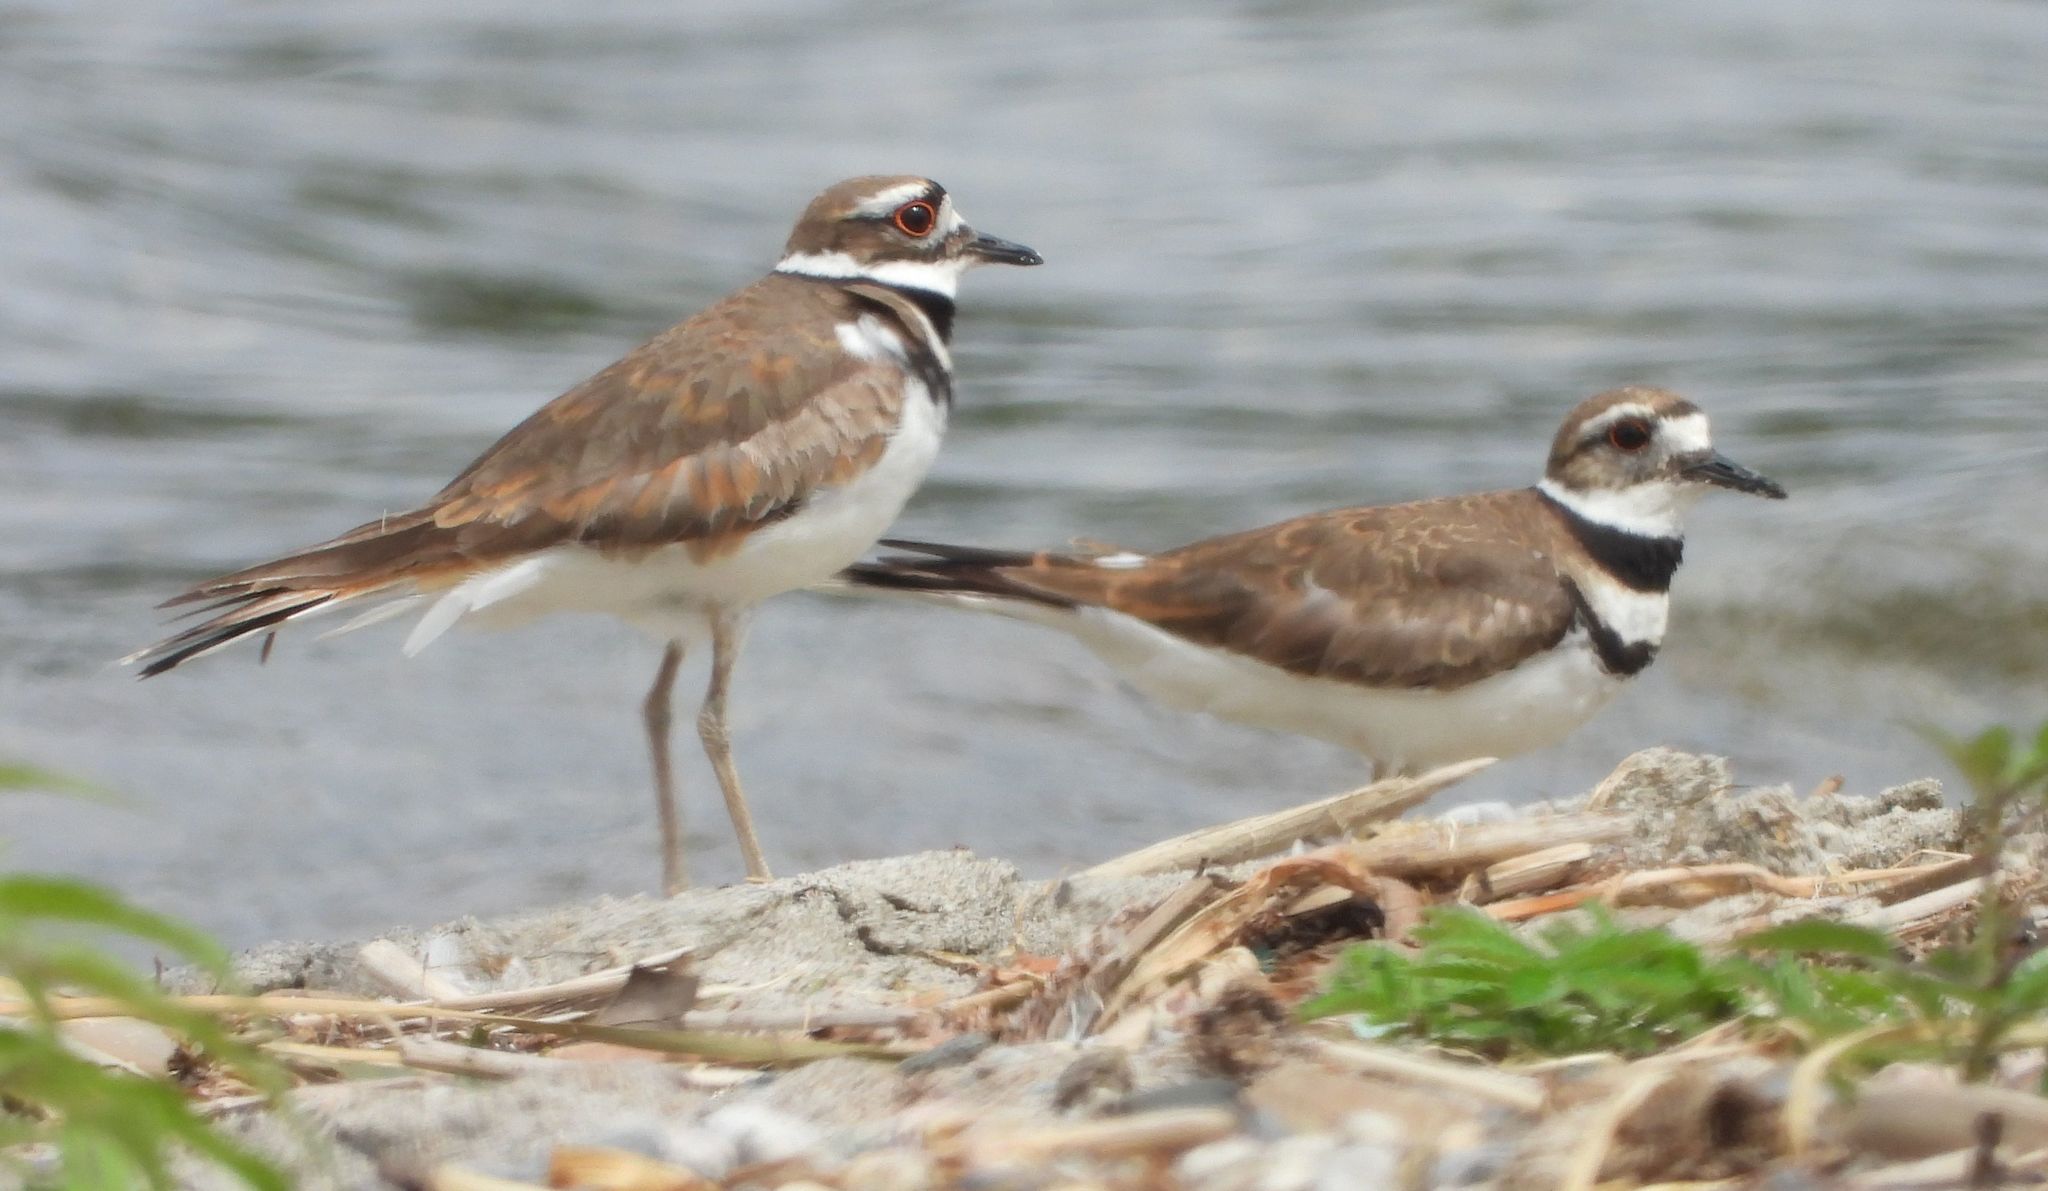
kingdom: Animalia
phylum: Chordata
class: Aves
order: Charadriiformes
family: Charadriidae
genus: Charadrius
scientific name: Charadrius vociferus
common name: Killdeer
